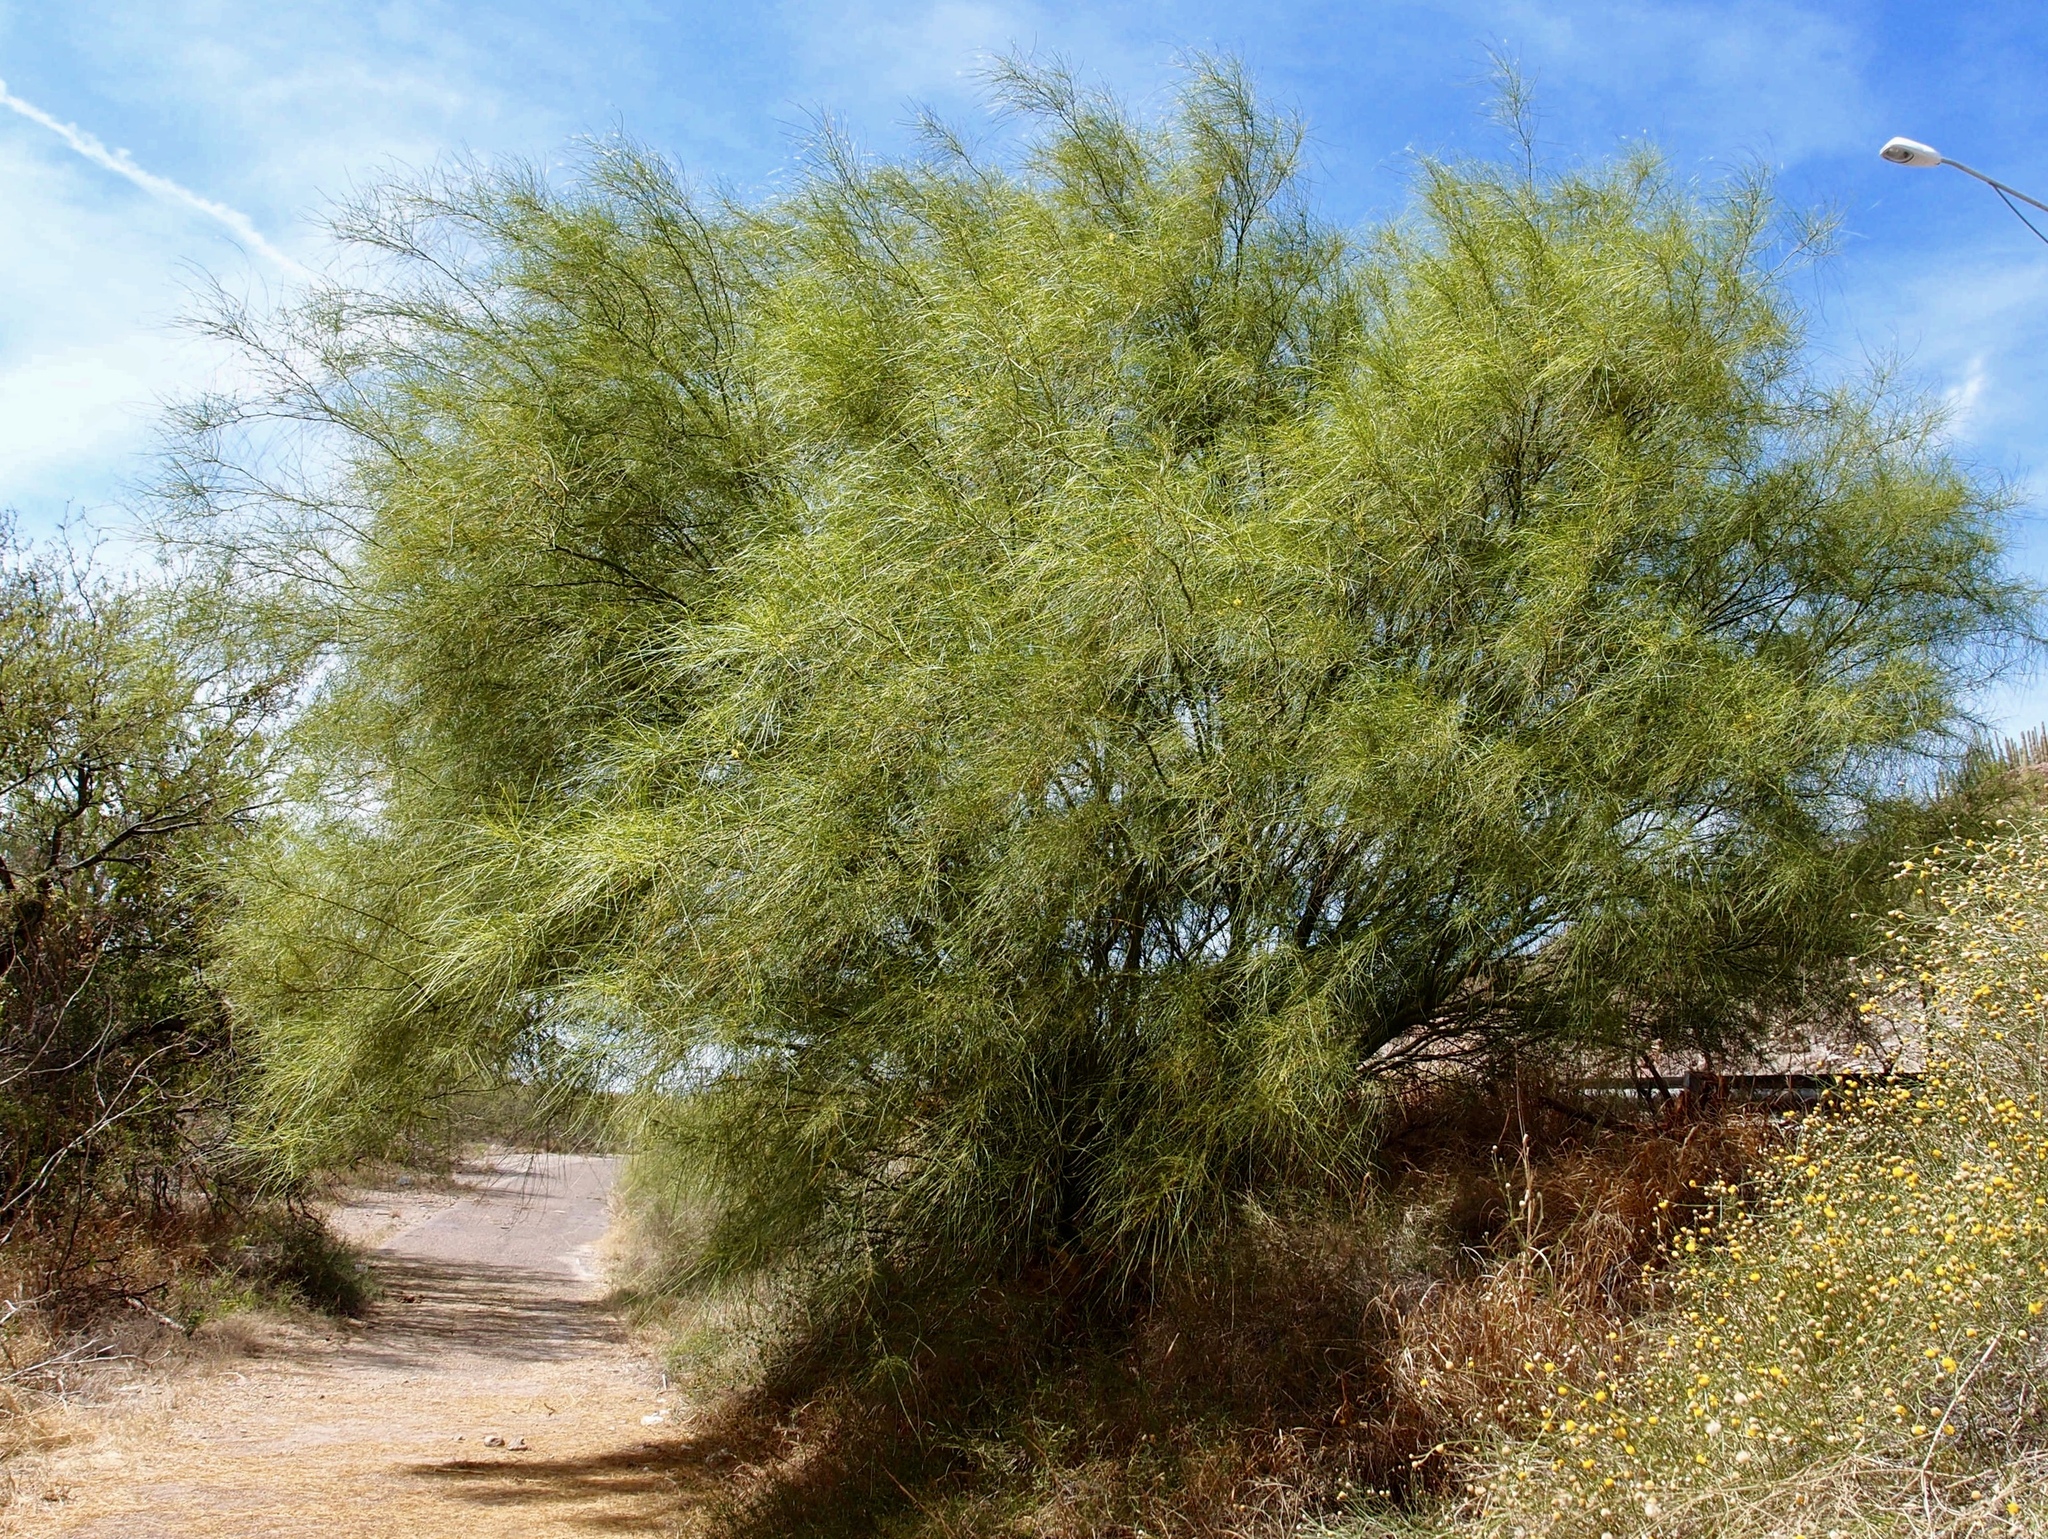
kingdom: Plantae
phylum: Tracheophyta
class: Magnoliopsida
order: Fabales
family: Fabaceae
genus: Parkinsonia
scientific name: Parkinsonia aculeata
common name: Jerusalem thorn
